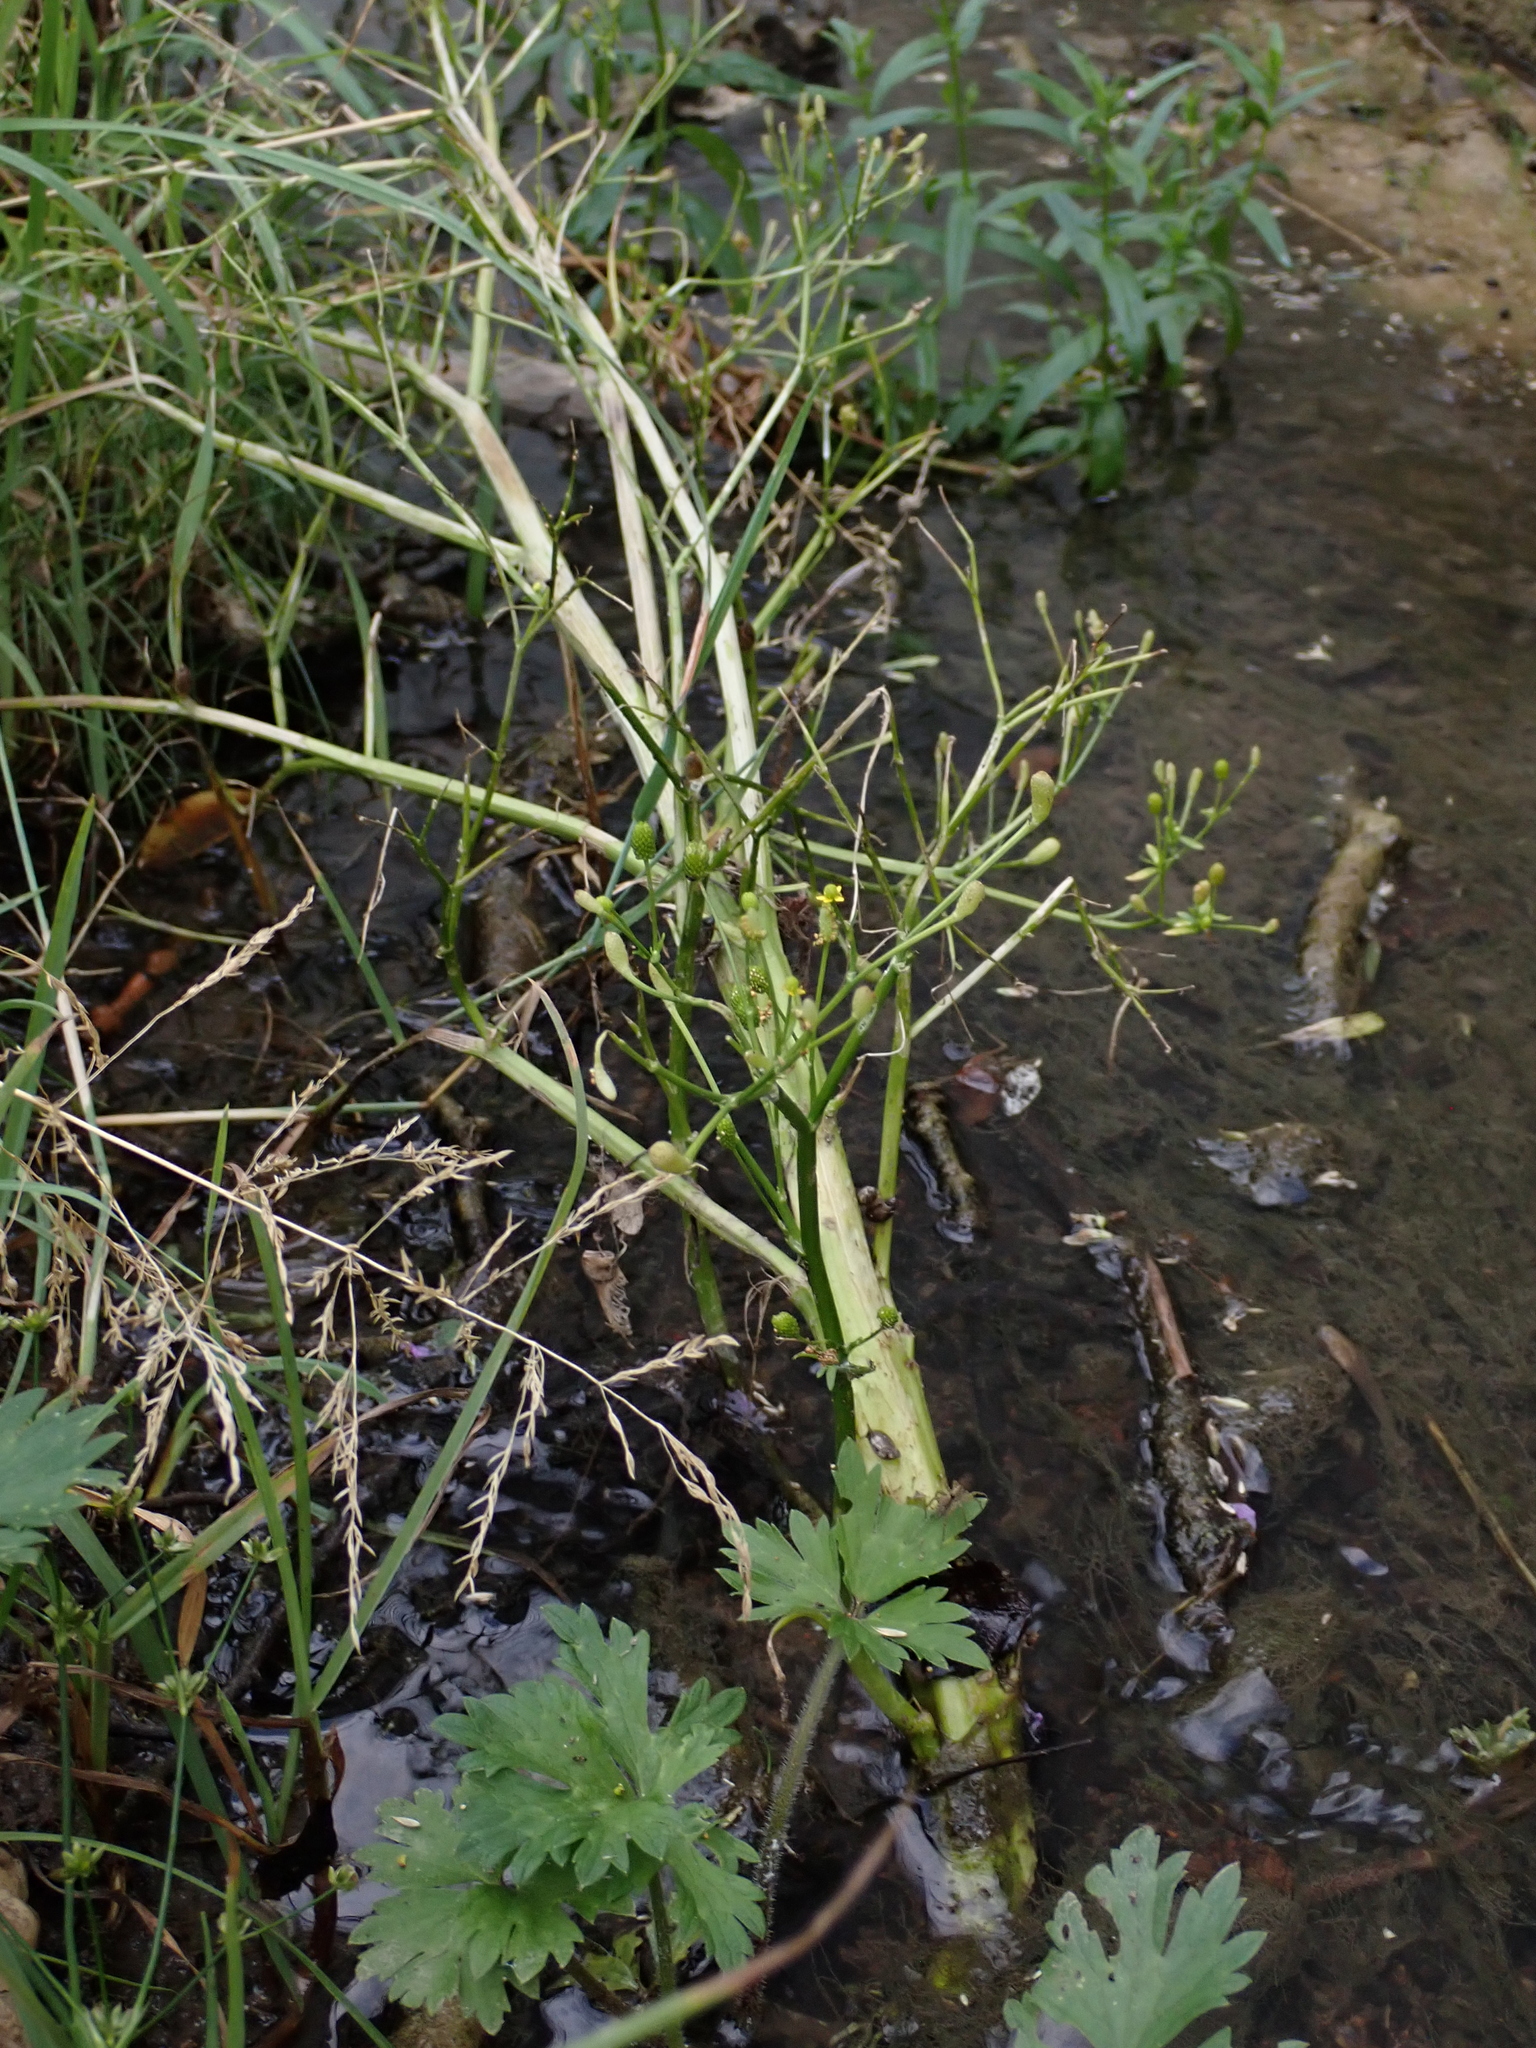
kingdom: Plantae
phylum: Tracheophyta
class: Magnoliopsida
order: Ranunculales
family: Ranunculaceae
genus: Ranunculus
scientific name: Ranunculus sceleratus
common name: Celery-leaved buttercup
